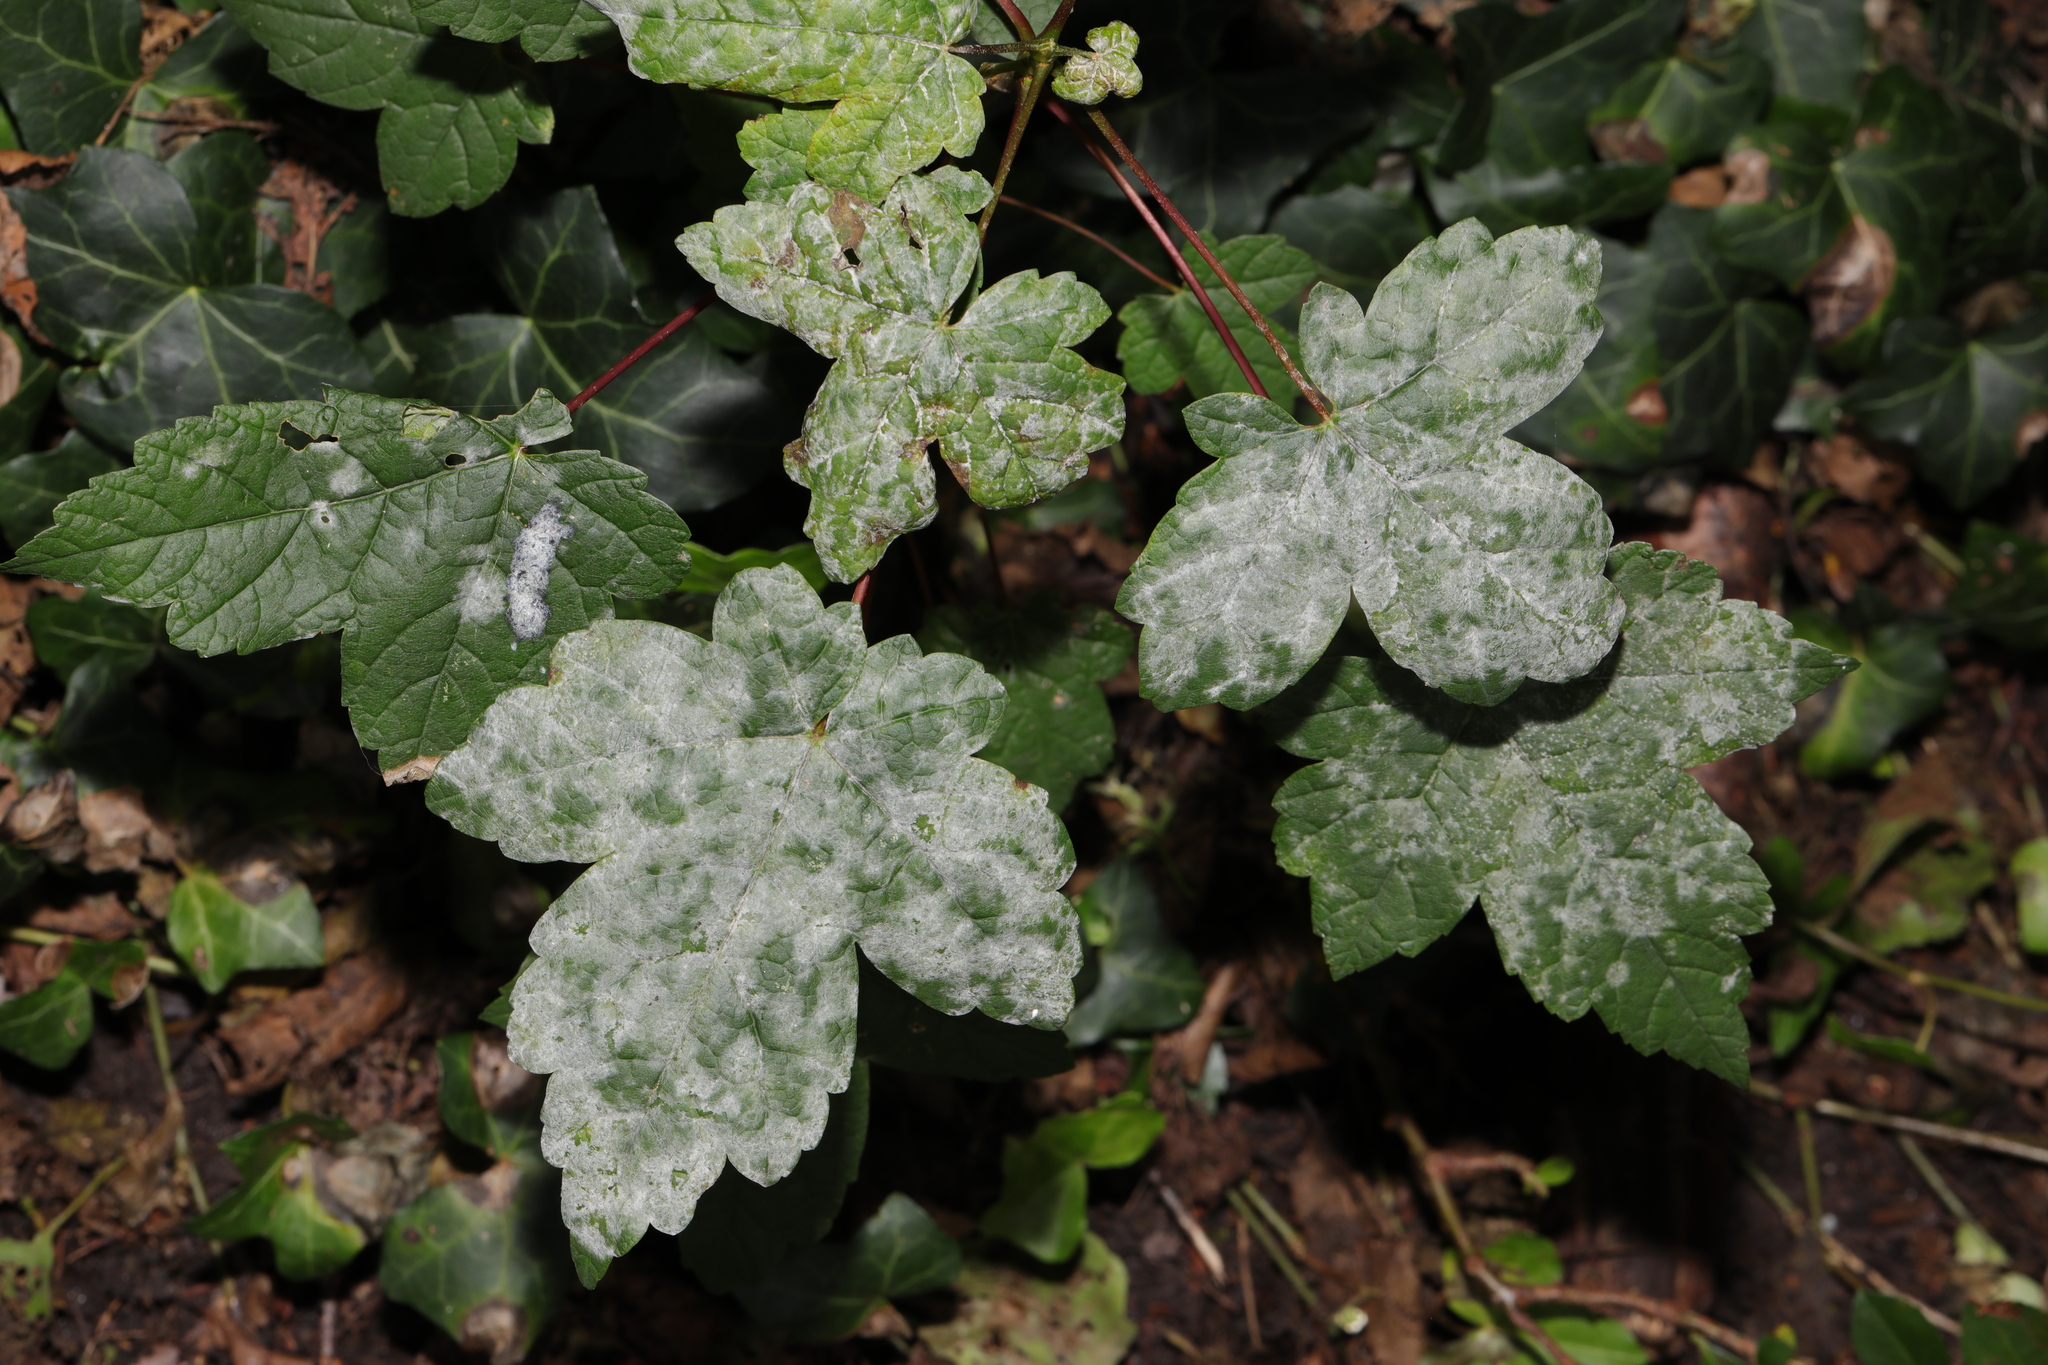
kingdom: Plantae
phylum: Tracheophyta
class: Magnoliopsida
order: Sapindales
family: Sapindaceae
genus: Acer
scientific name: Acer pseudoplatanus
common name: Sycamore
